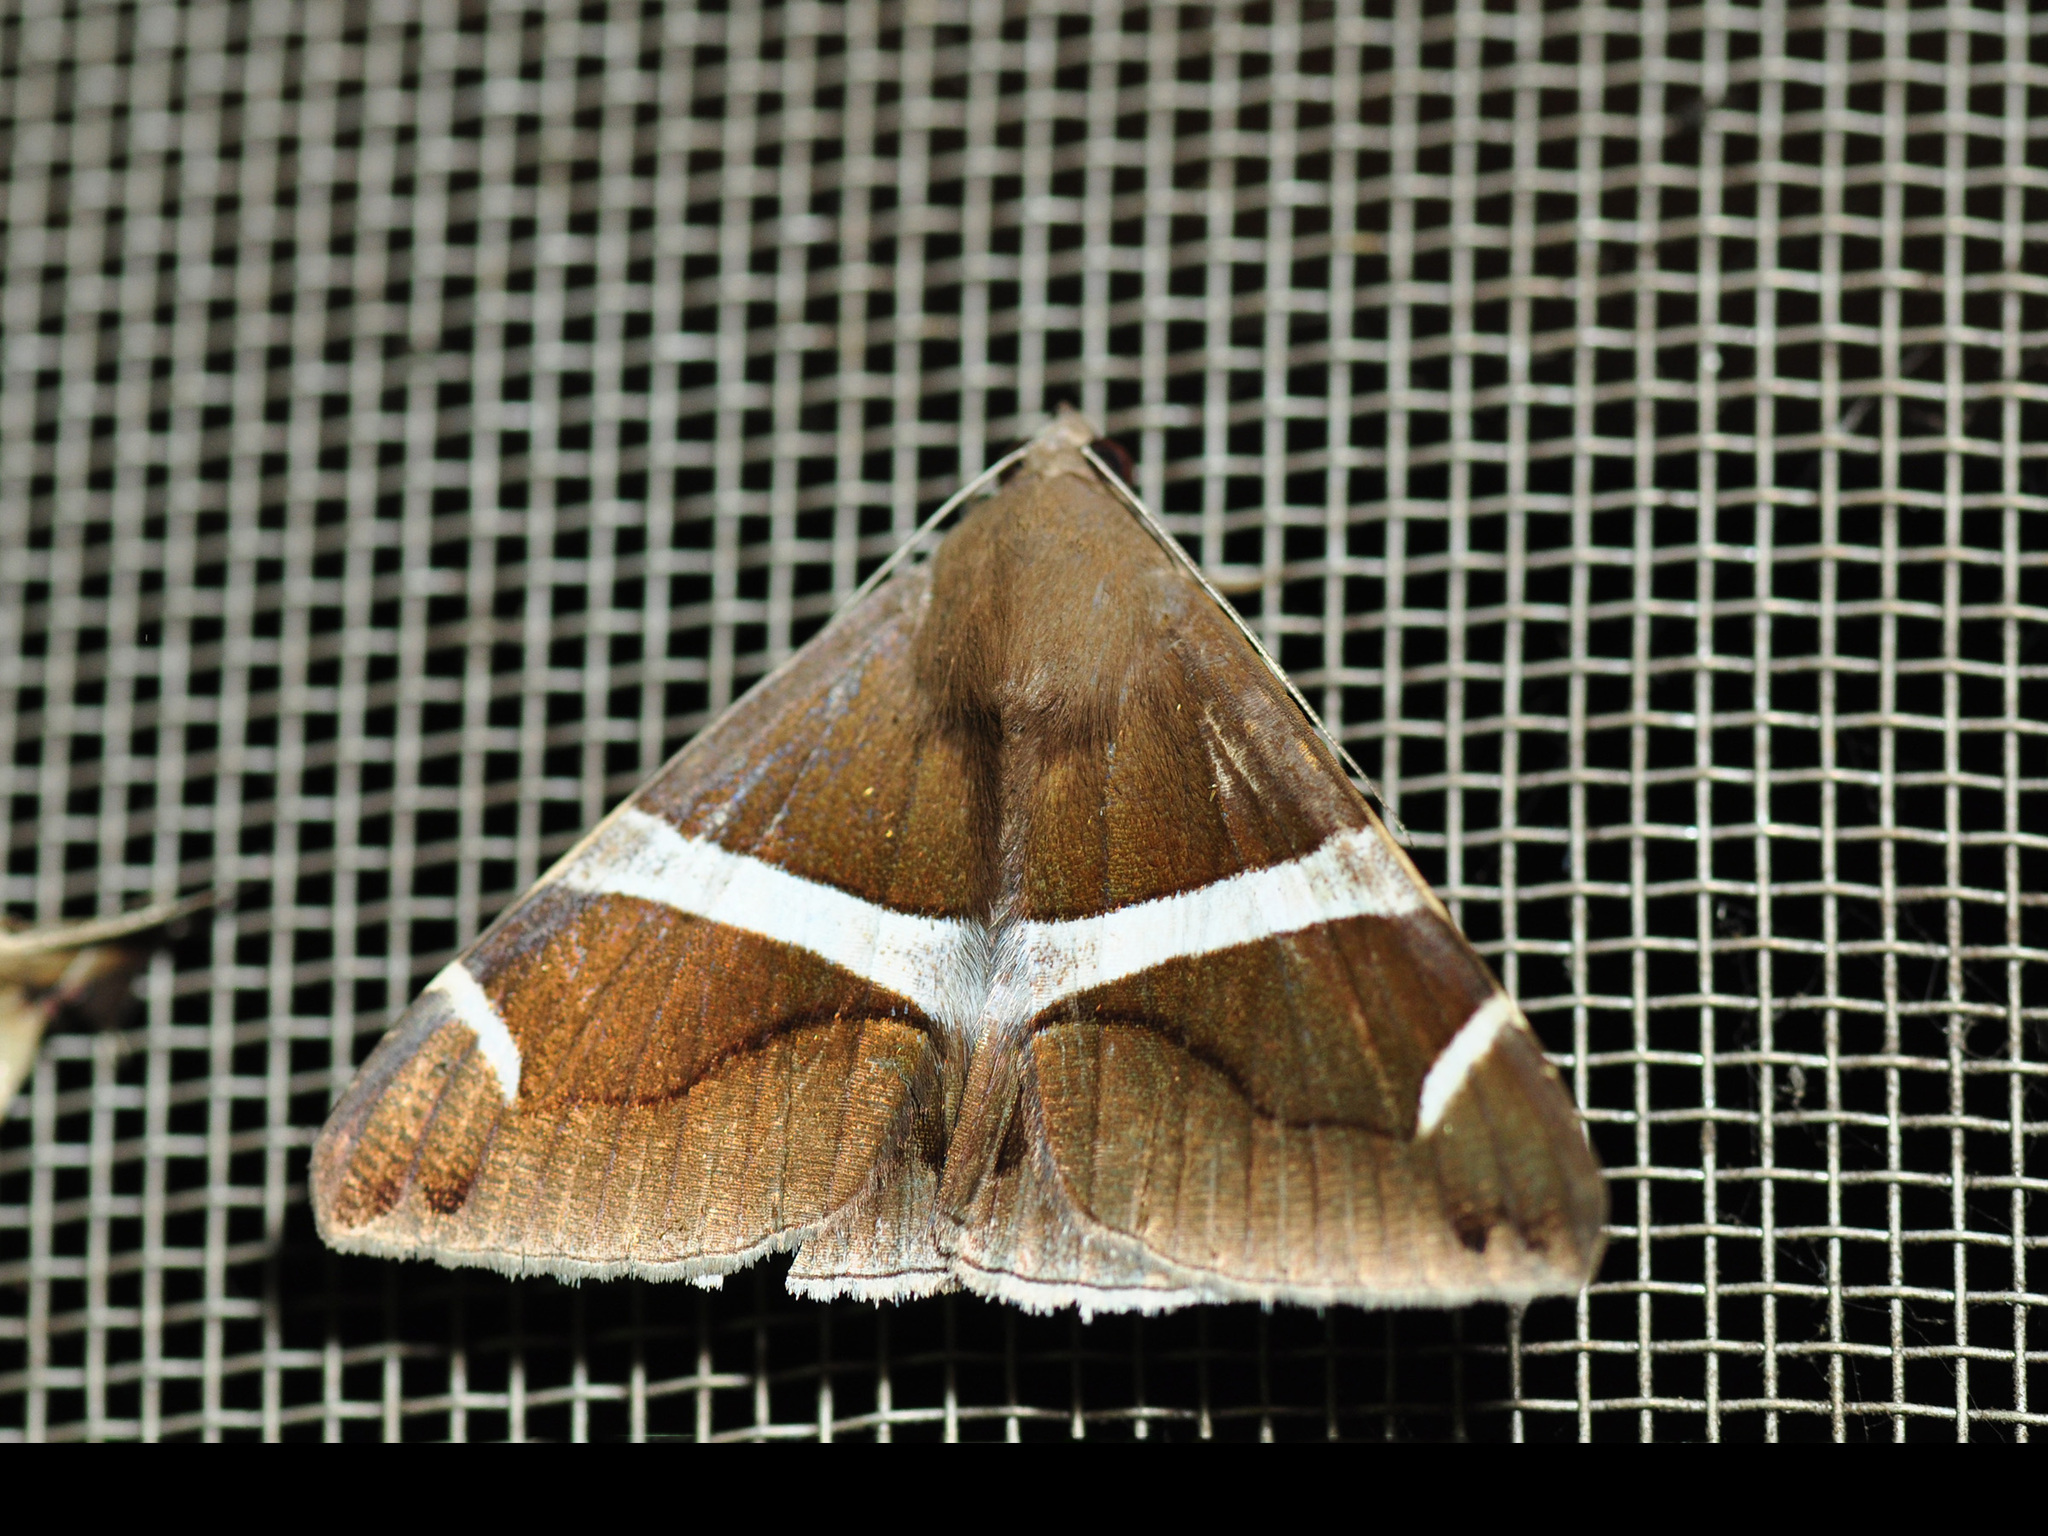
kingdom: Animalia
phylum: Arthropoda
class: Insecta
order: Lepidoptera
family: Erebidae
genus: Bastilla
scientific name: Bastilla arctotaenia
